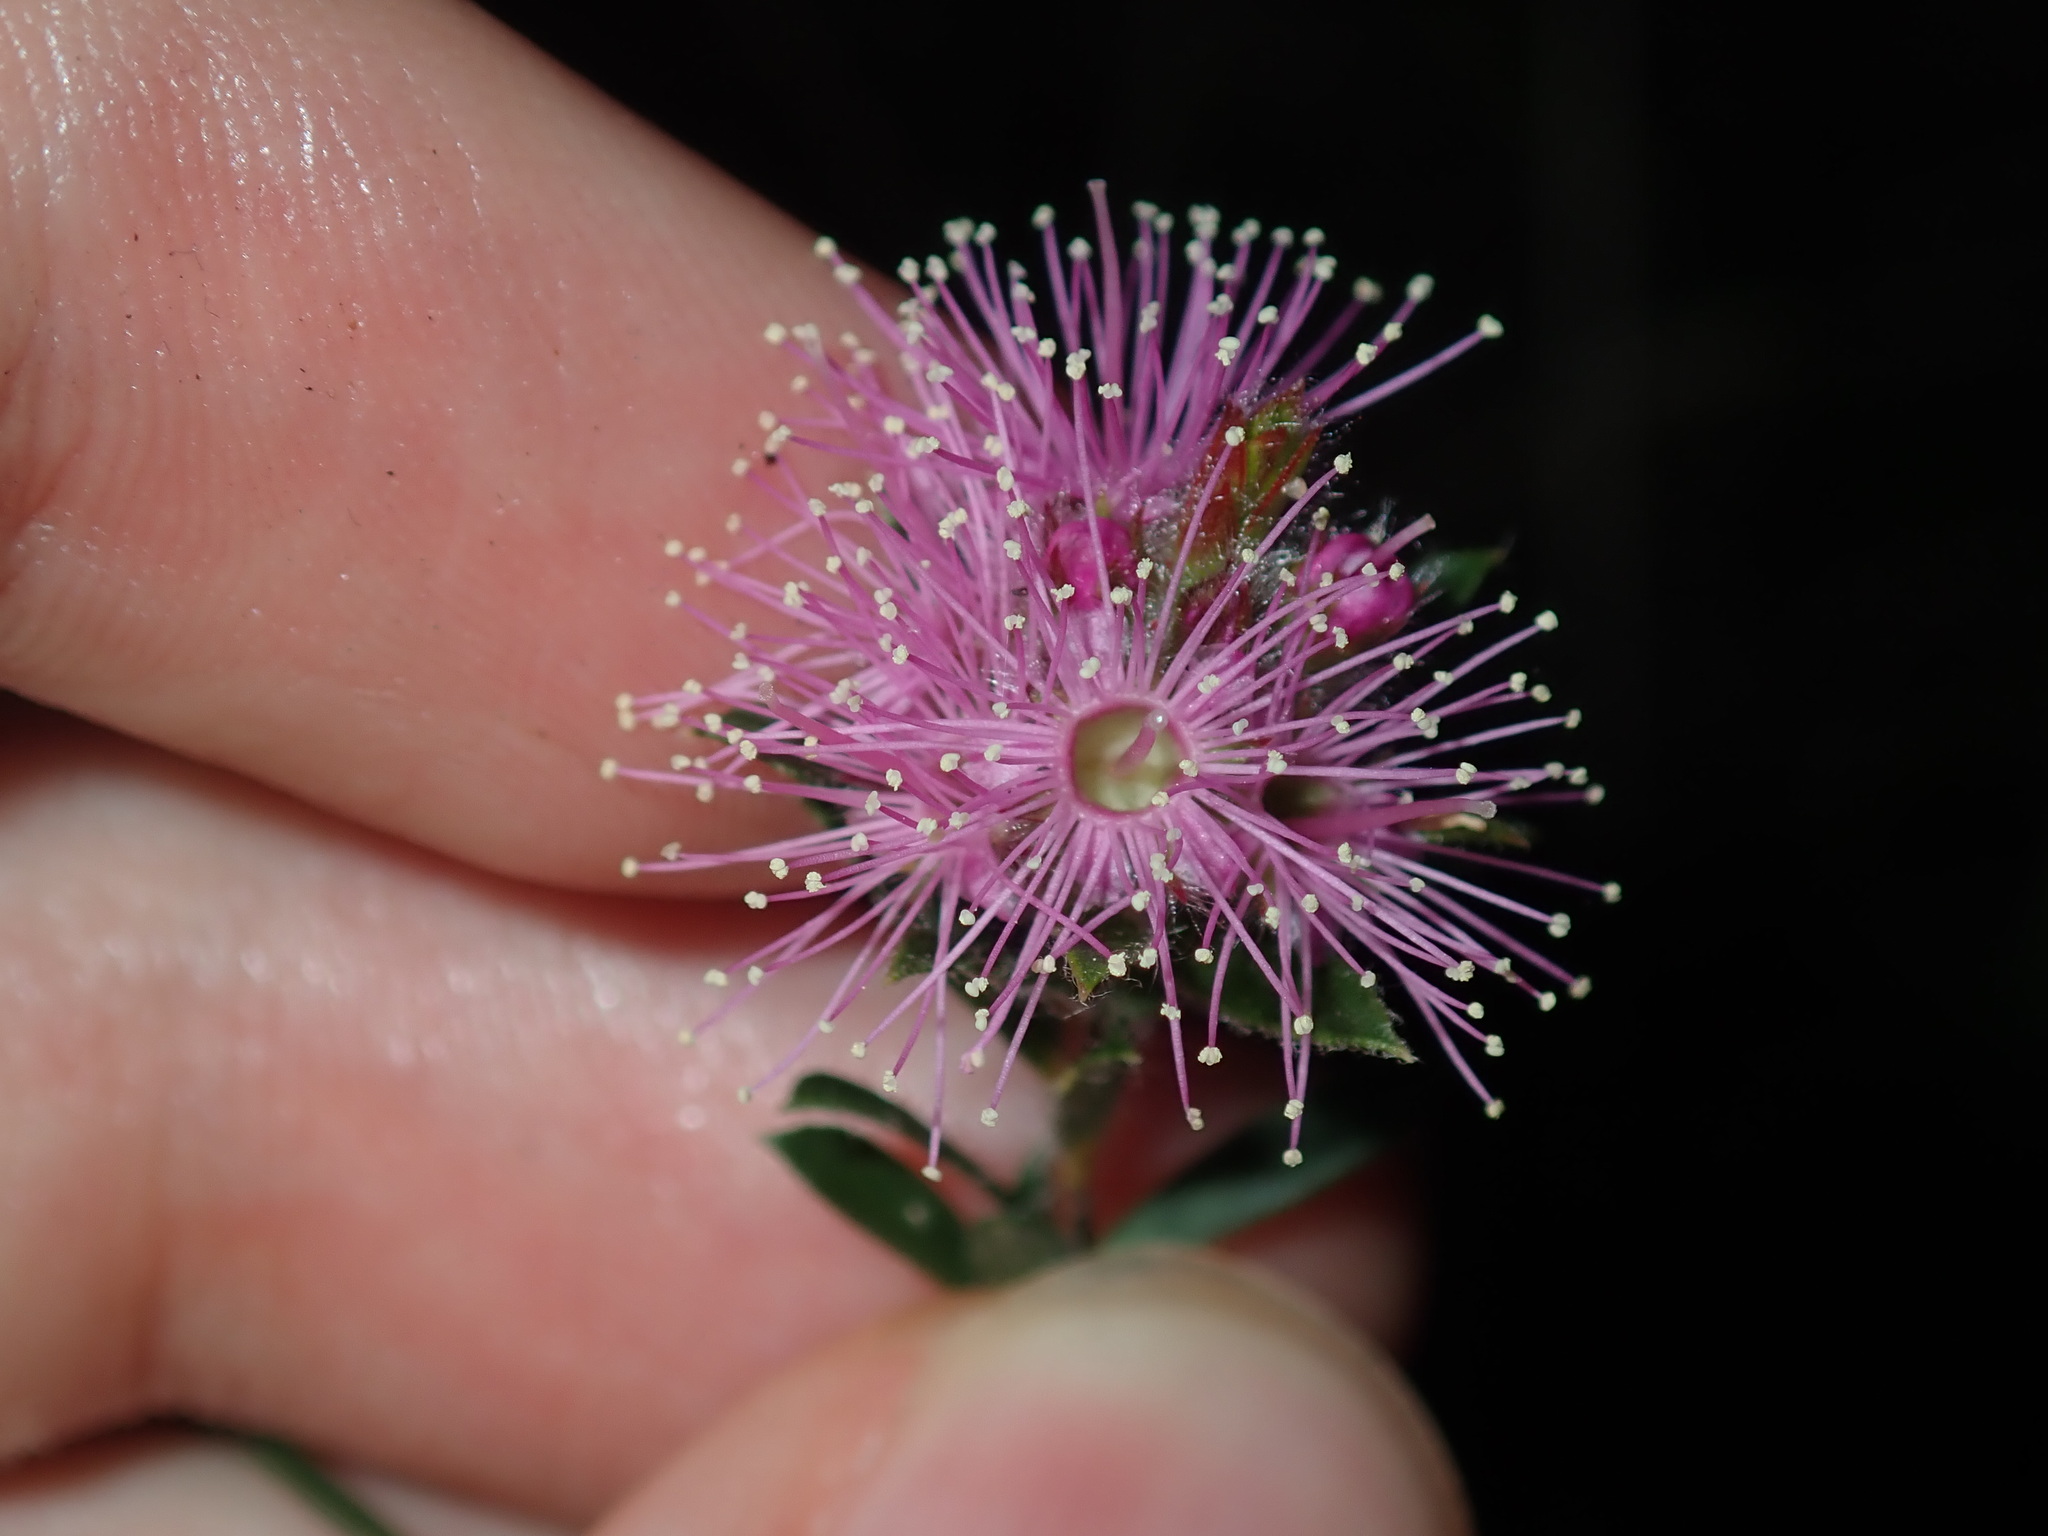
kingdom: Plantae
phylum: Tracheophyta
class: Magnoliopsida
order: Myrtales
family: Myrtaceae
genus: Kunzea
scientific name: Kunzea capitata
